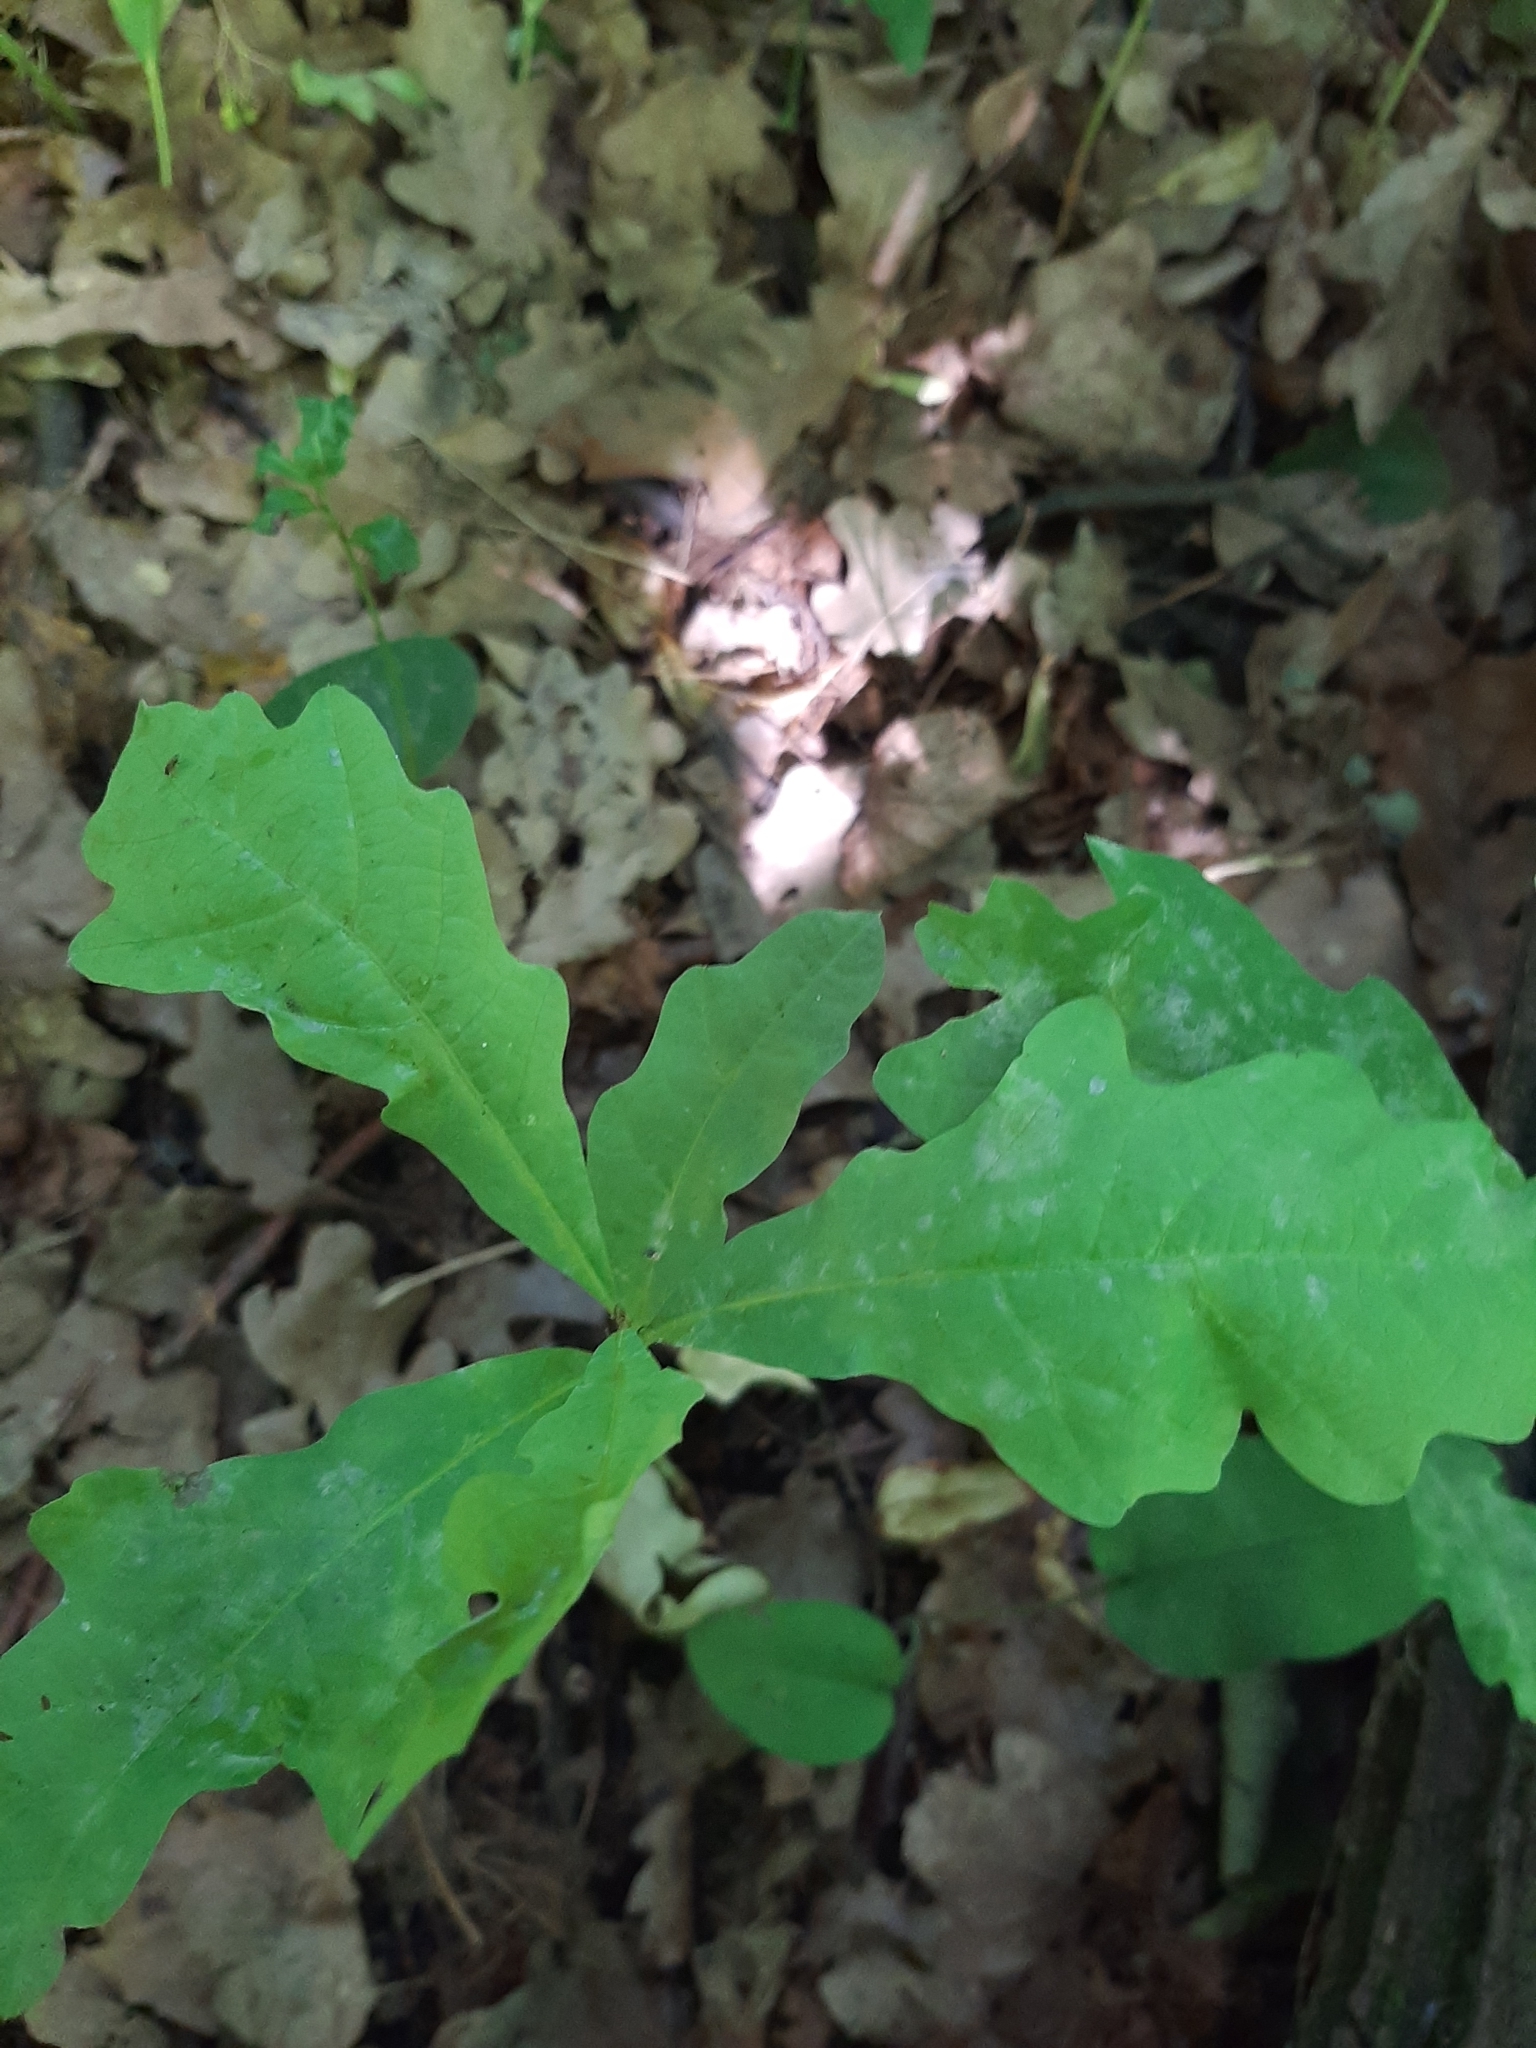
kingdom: Plantae
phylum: Tracheophyta
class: Magnoliopsida
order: Fagales
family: Fagaceae
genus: Quercus
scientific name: Quercus robur
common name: Pedunculate oak
